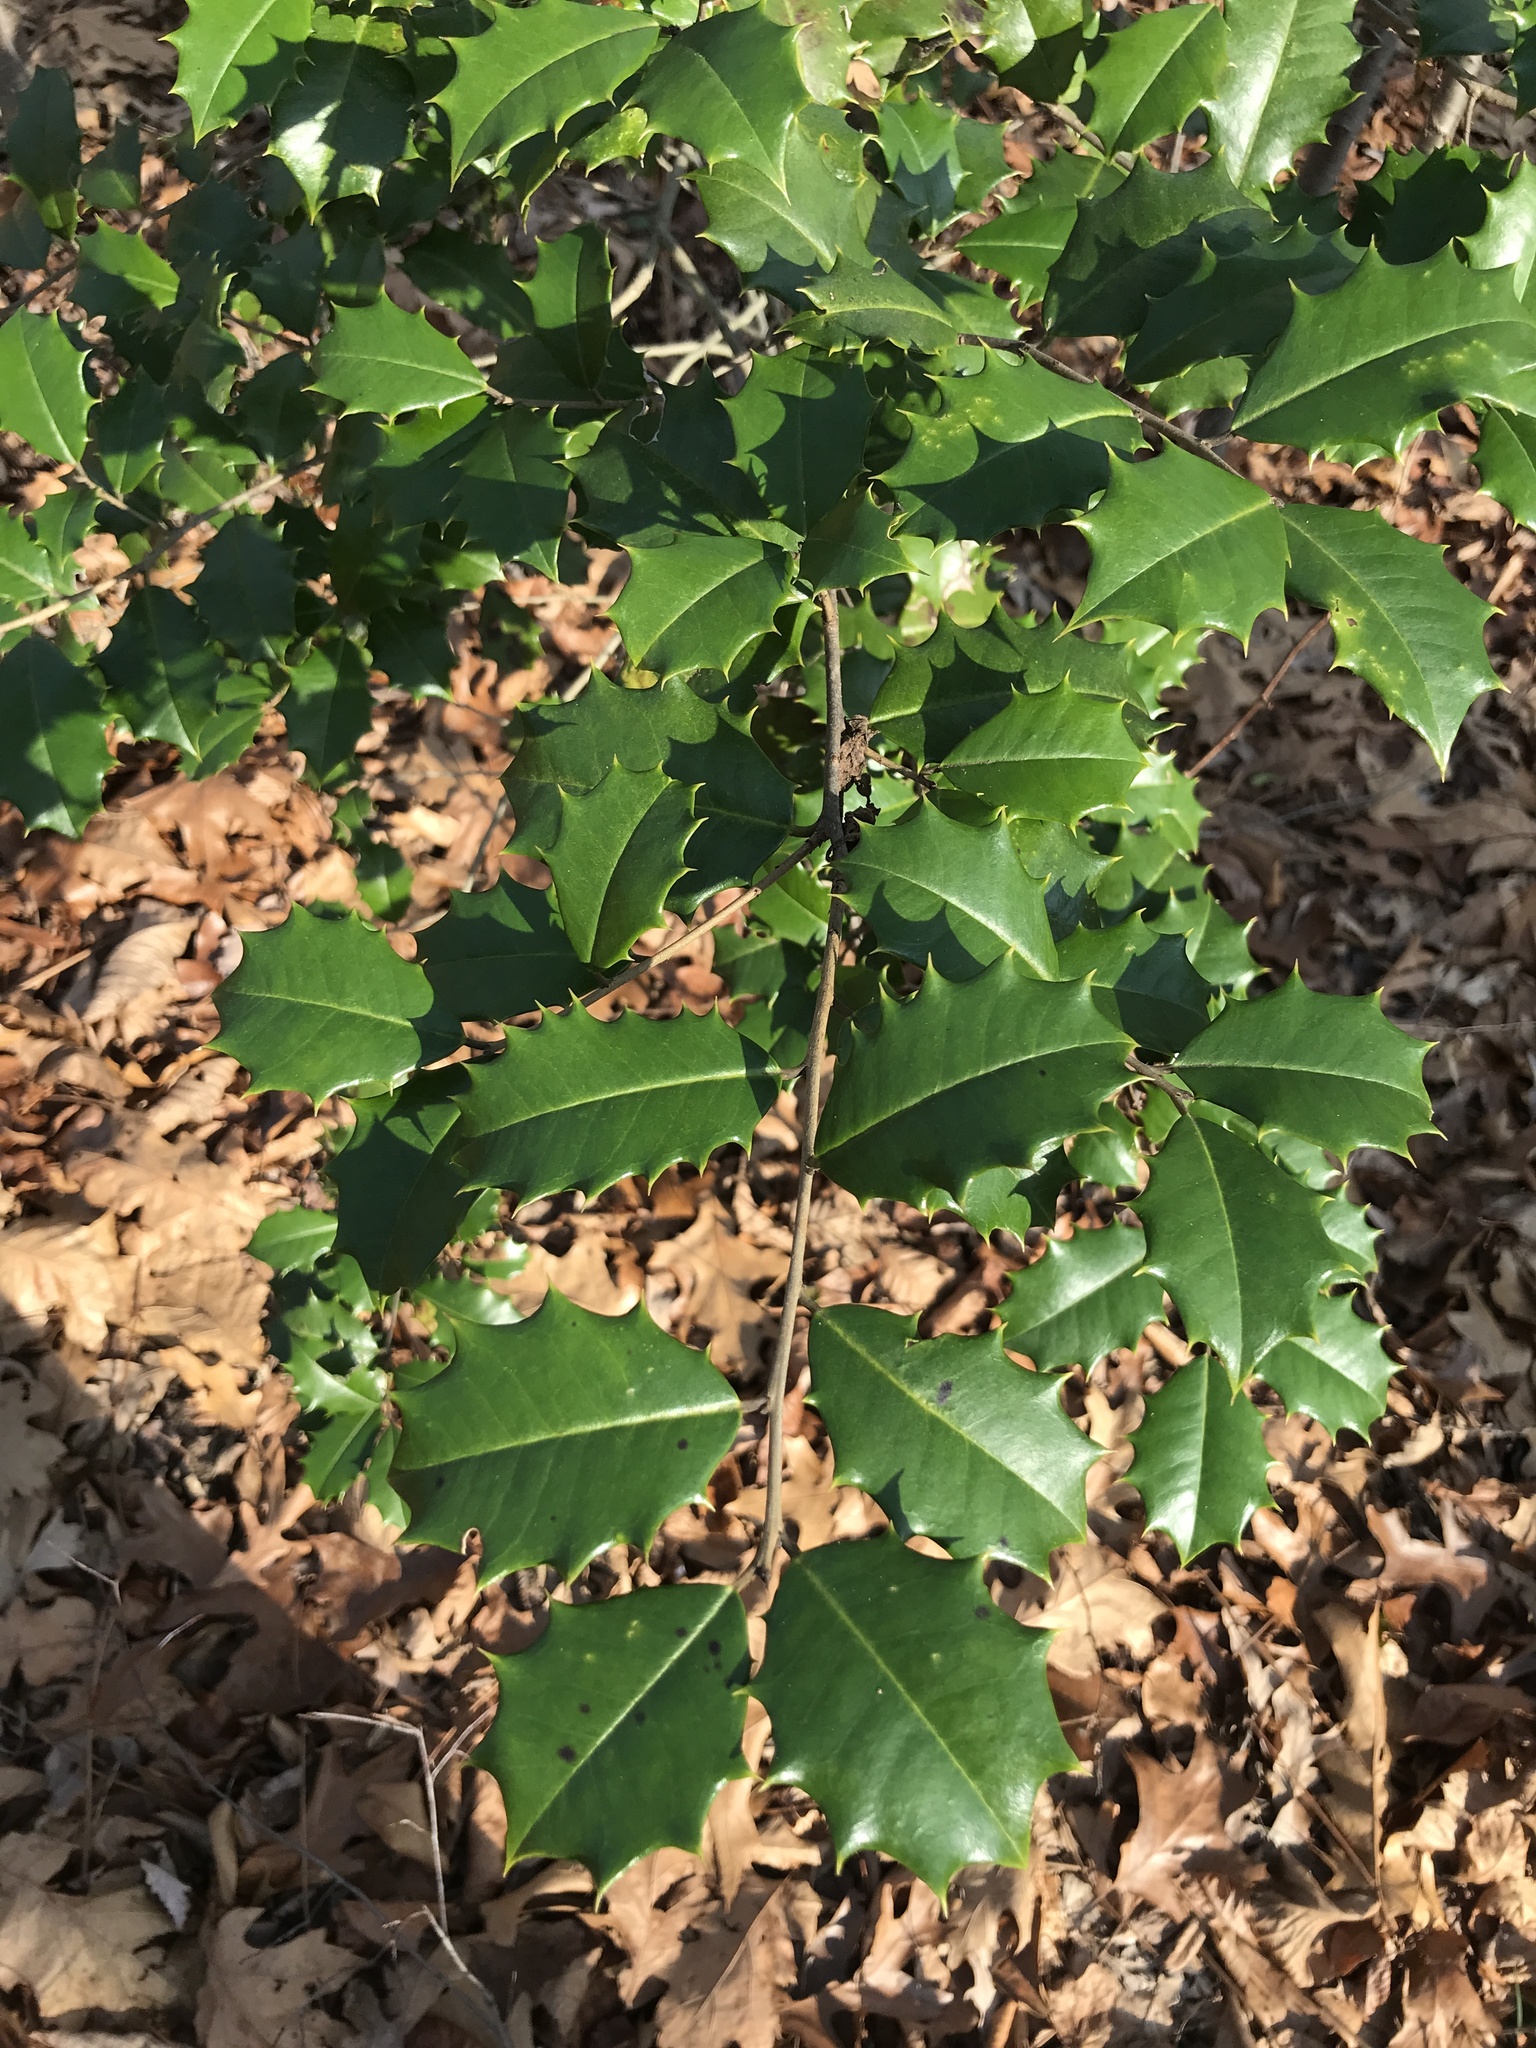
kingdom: Plantae
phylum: Tracheophyta
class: Magnoliopsida
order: Aquifoliales
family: Aquifoliaceae
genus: Ilex
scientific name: Ilex opaca
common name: American holly
